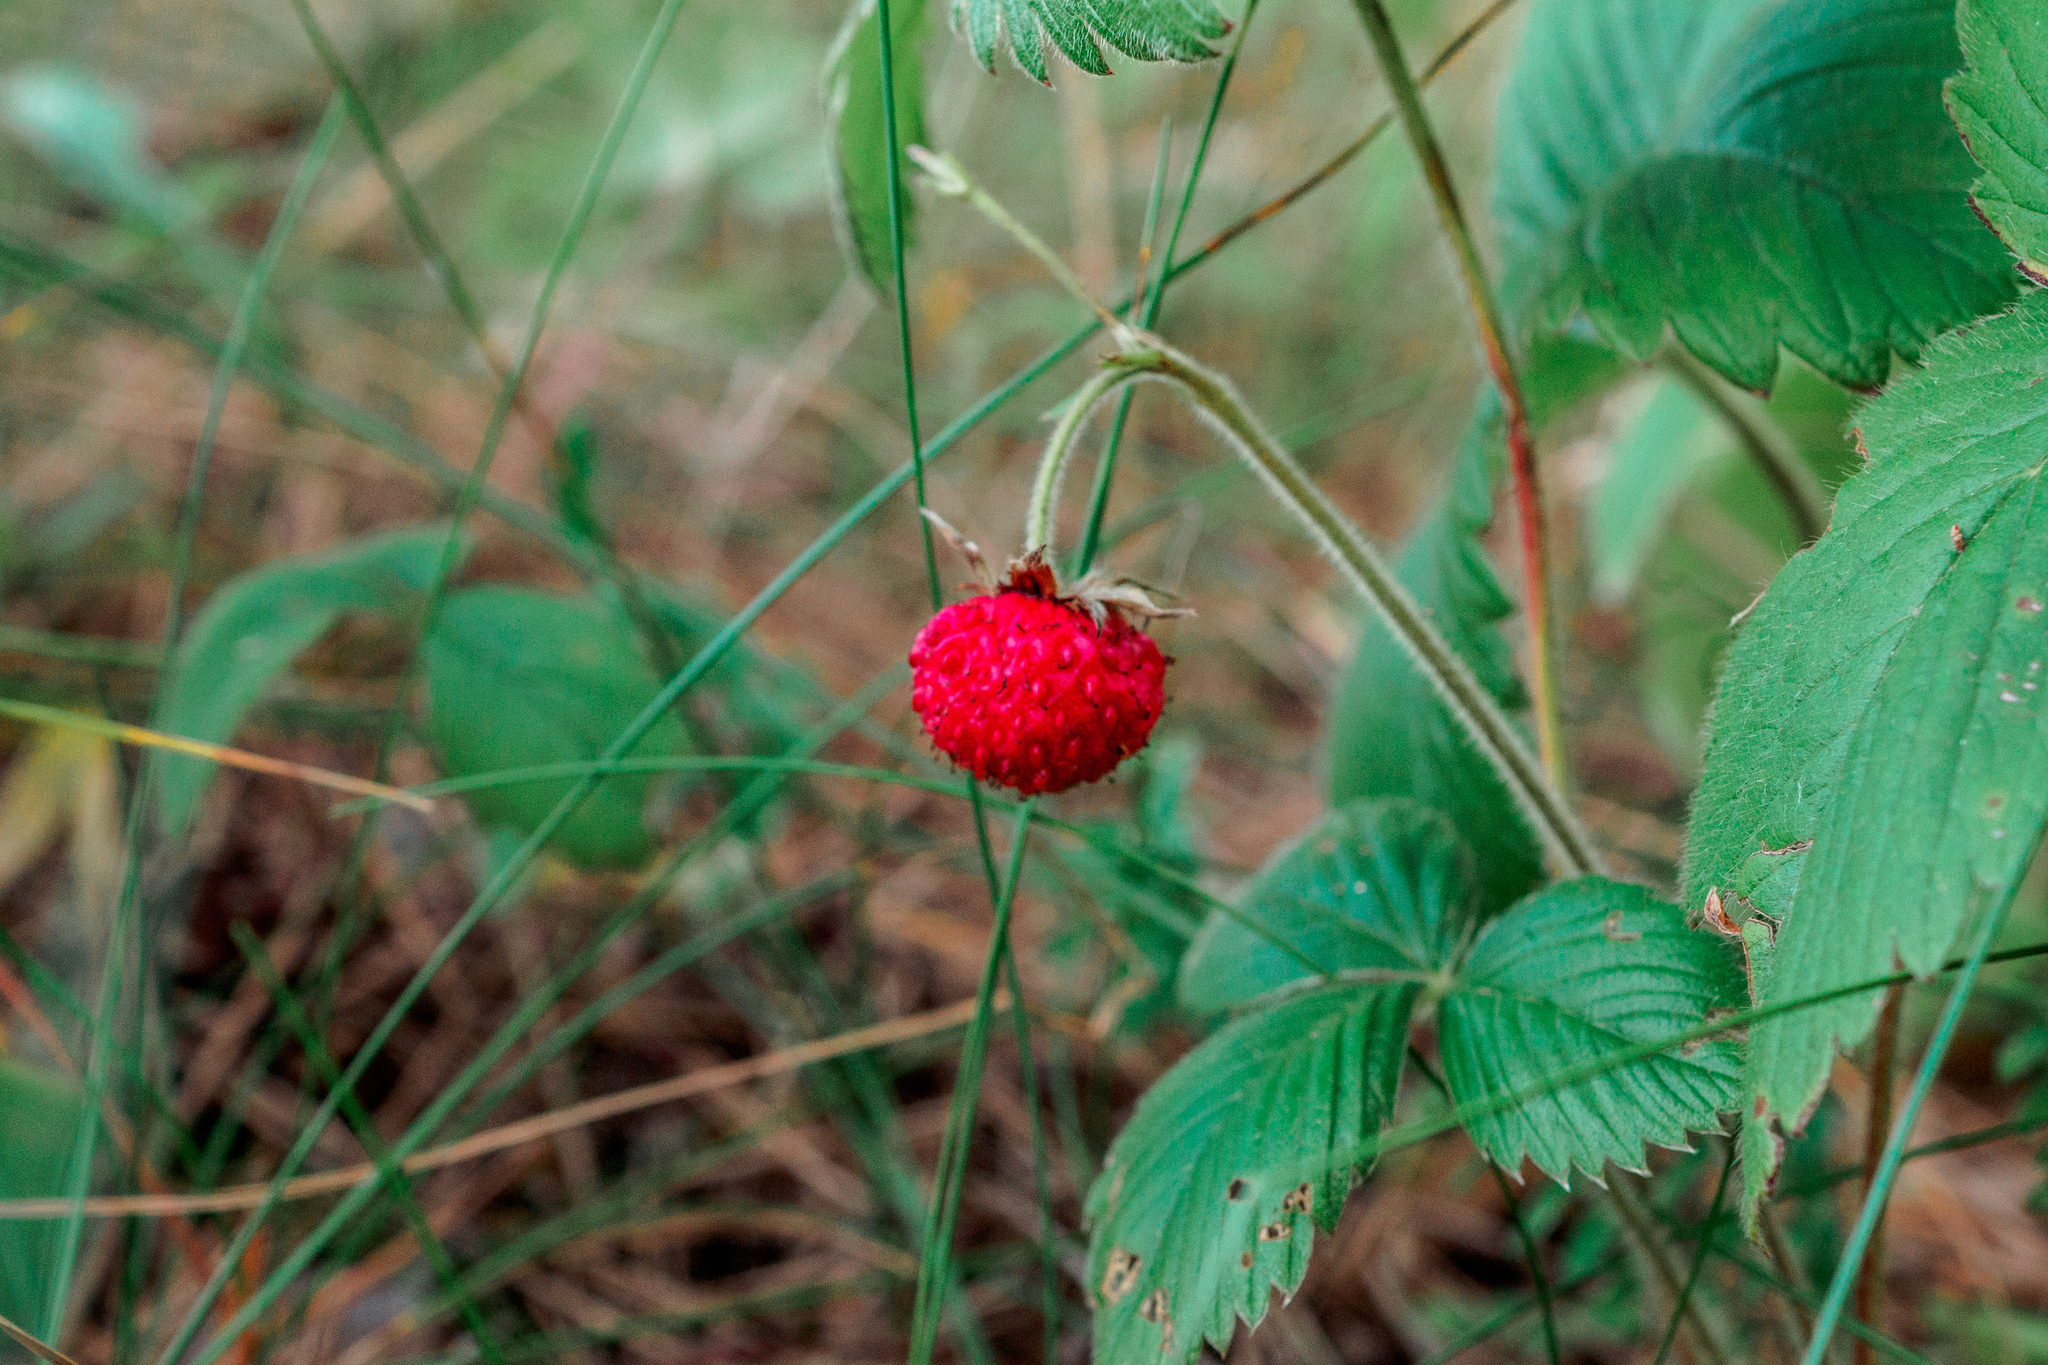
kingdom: Plantae
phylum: Tracheophyta
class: Magnoliopsida
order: Rosales
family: Rosaceae
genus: Fragaria
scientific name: Fragaria vesca
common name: Wild strawberry
